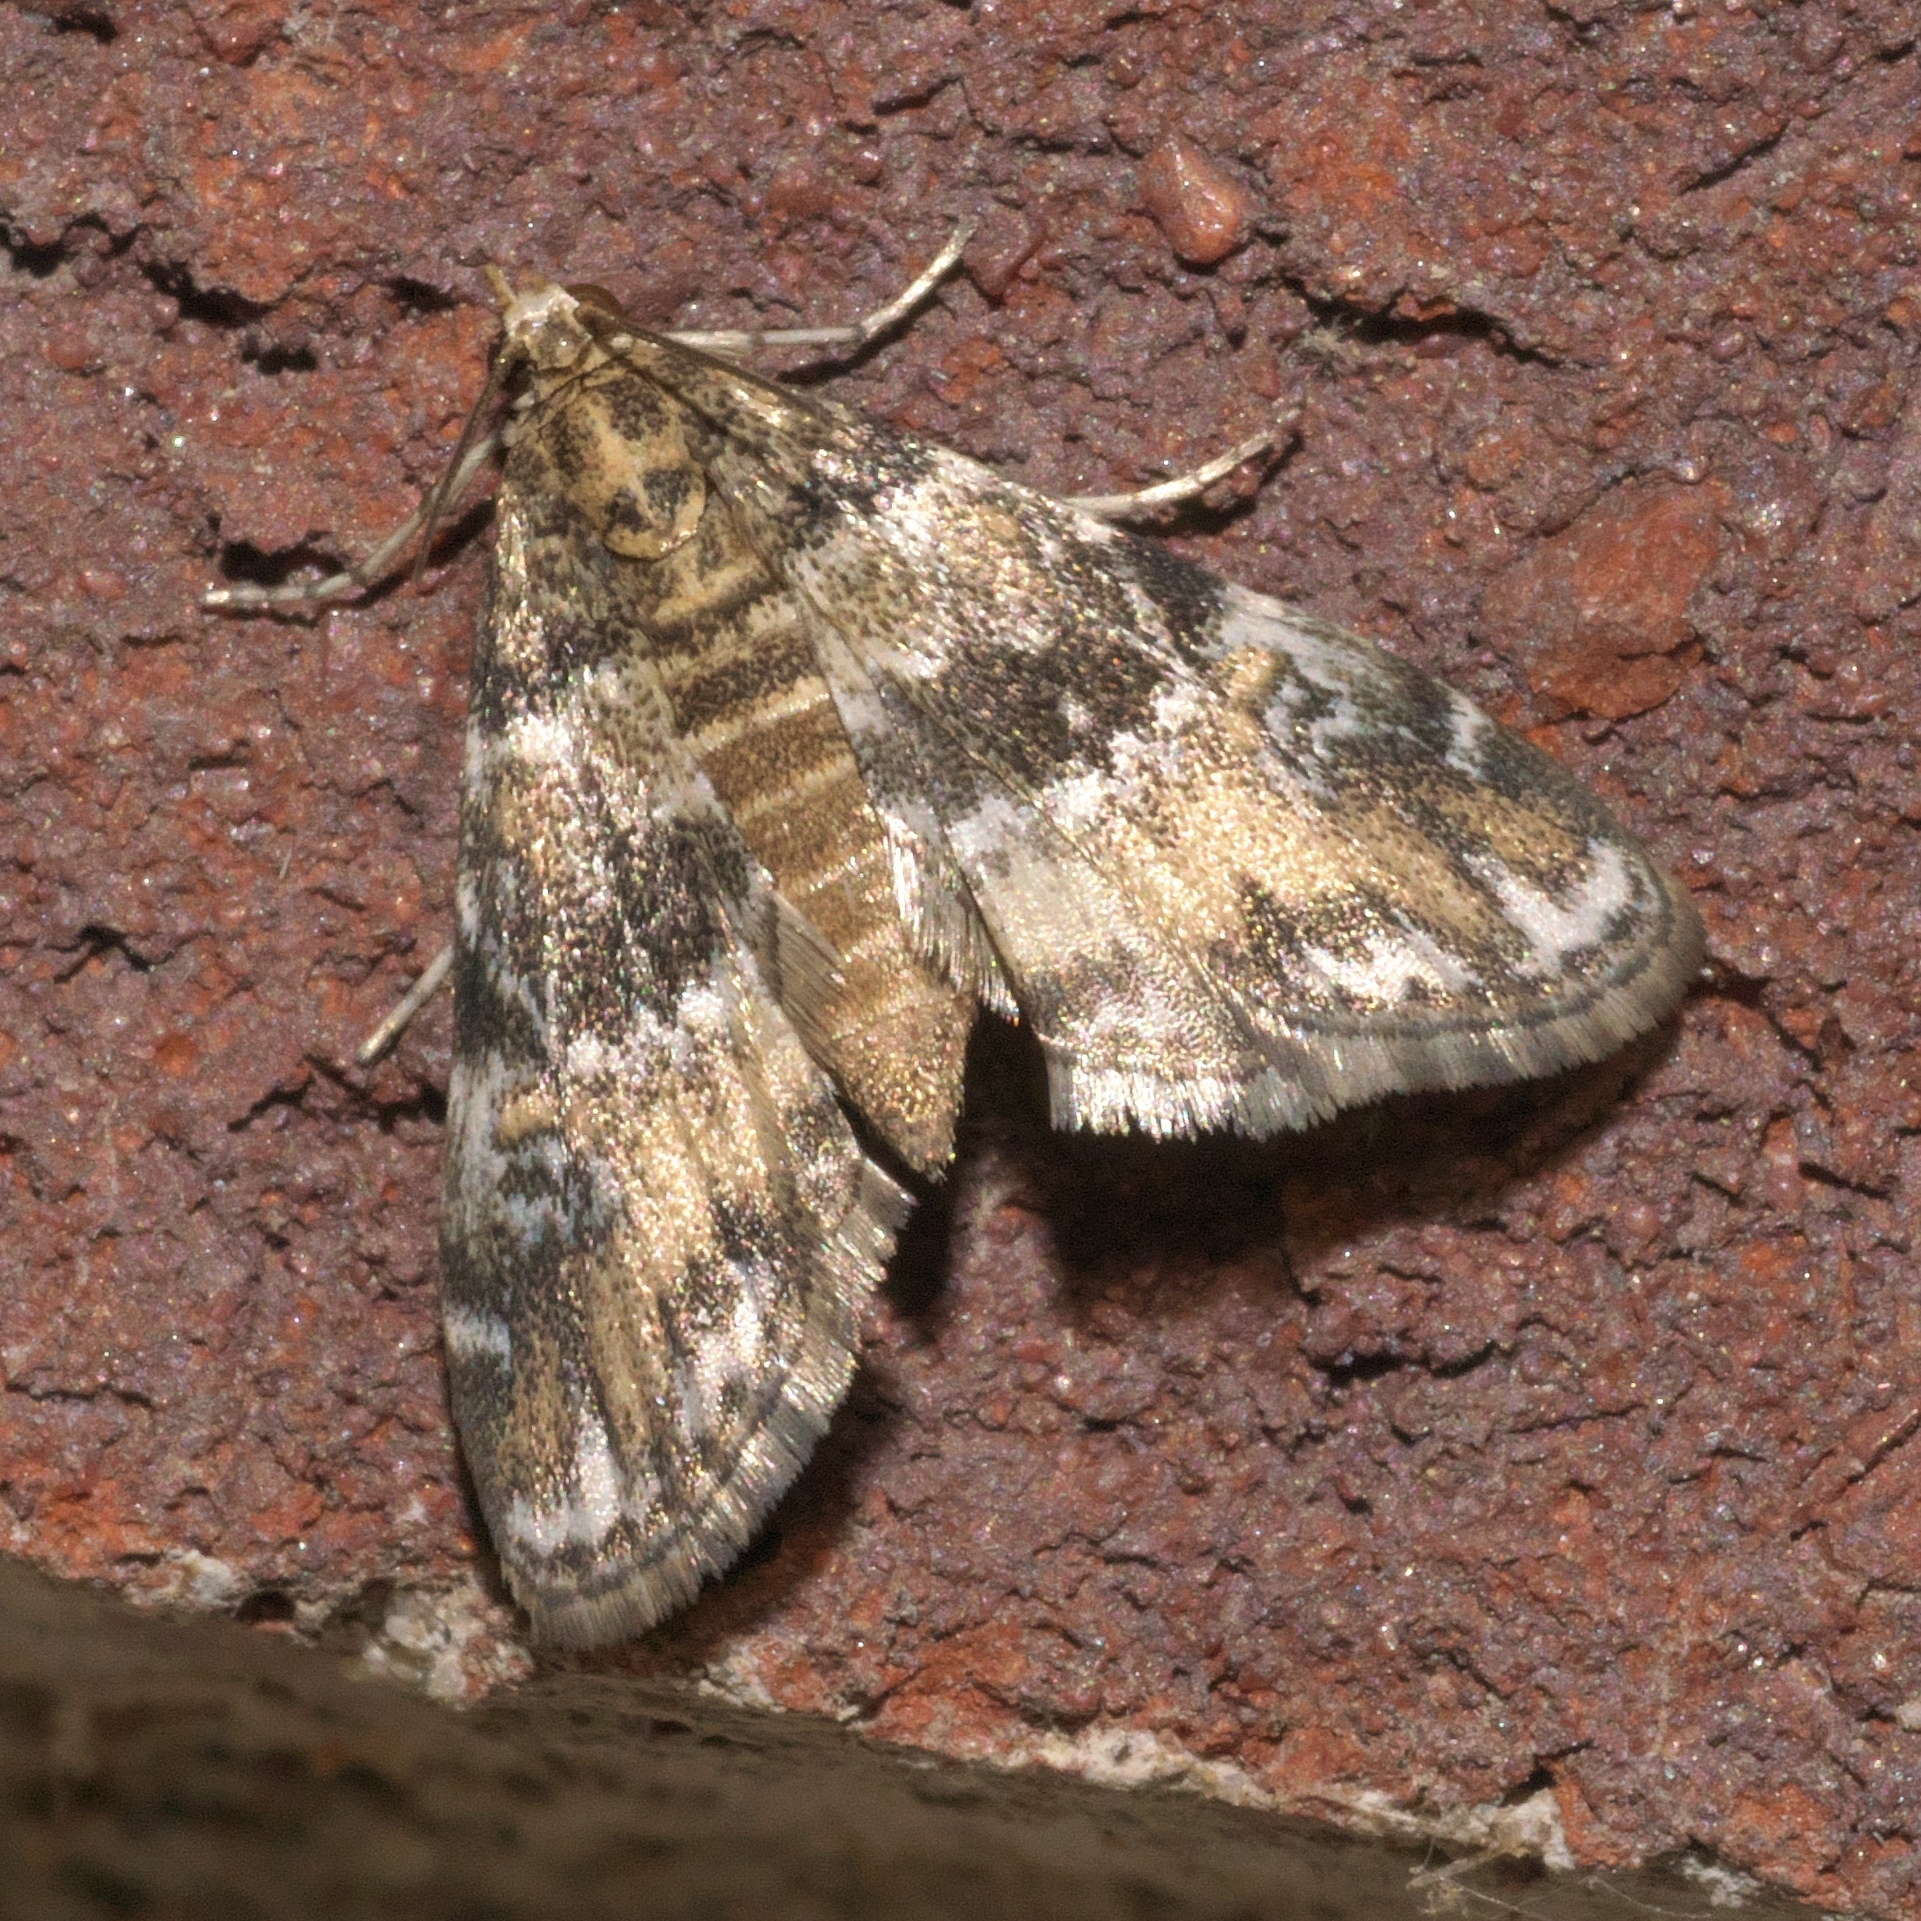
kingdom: Animalia
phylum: Arthropoda
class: Insecta
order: Lepidoptera
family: Crambidae
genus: Elophila
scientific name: Elophila obliteralis
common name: Waterlily leafcutter moth
